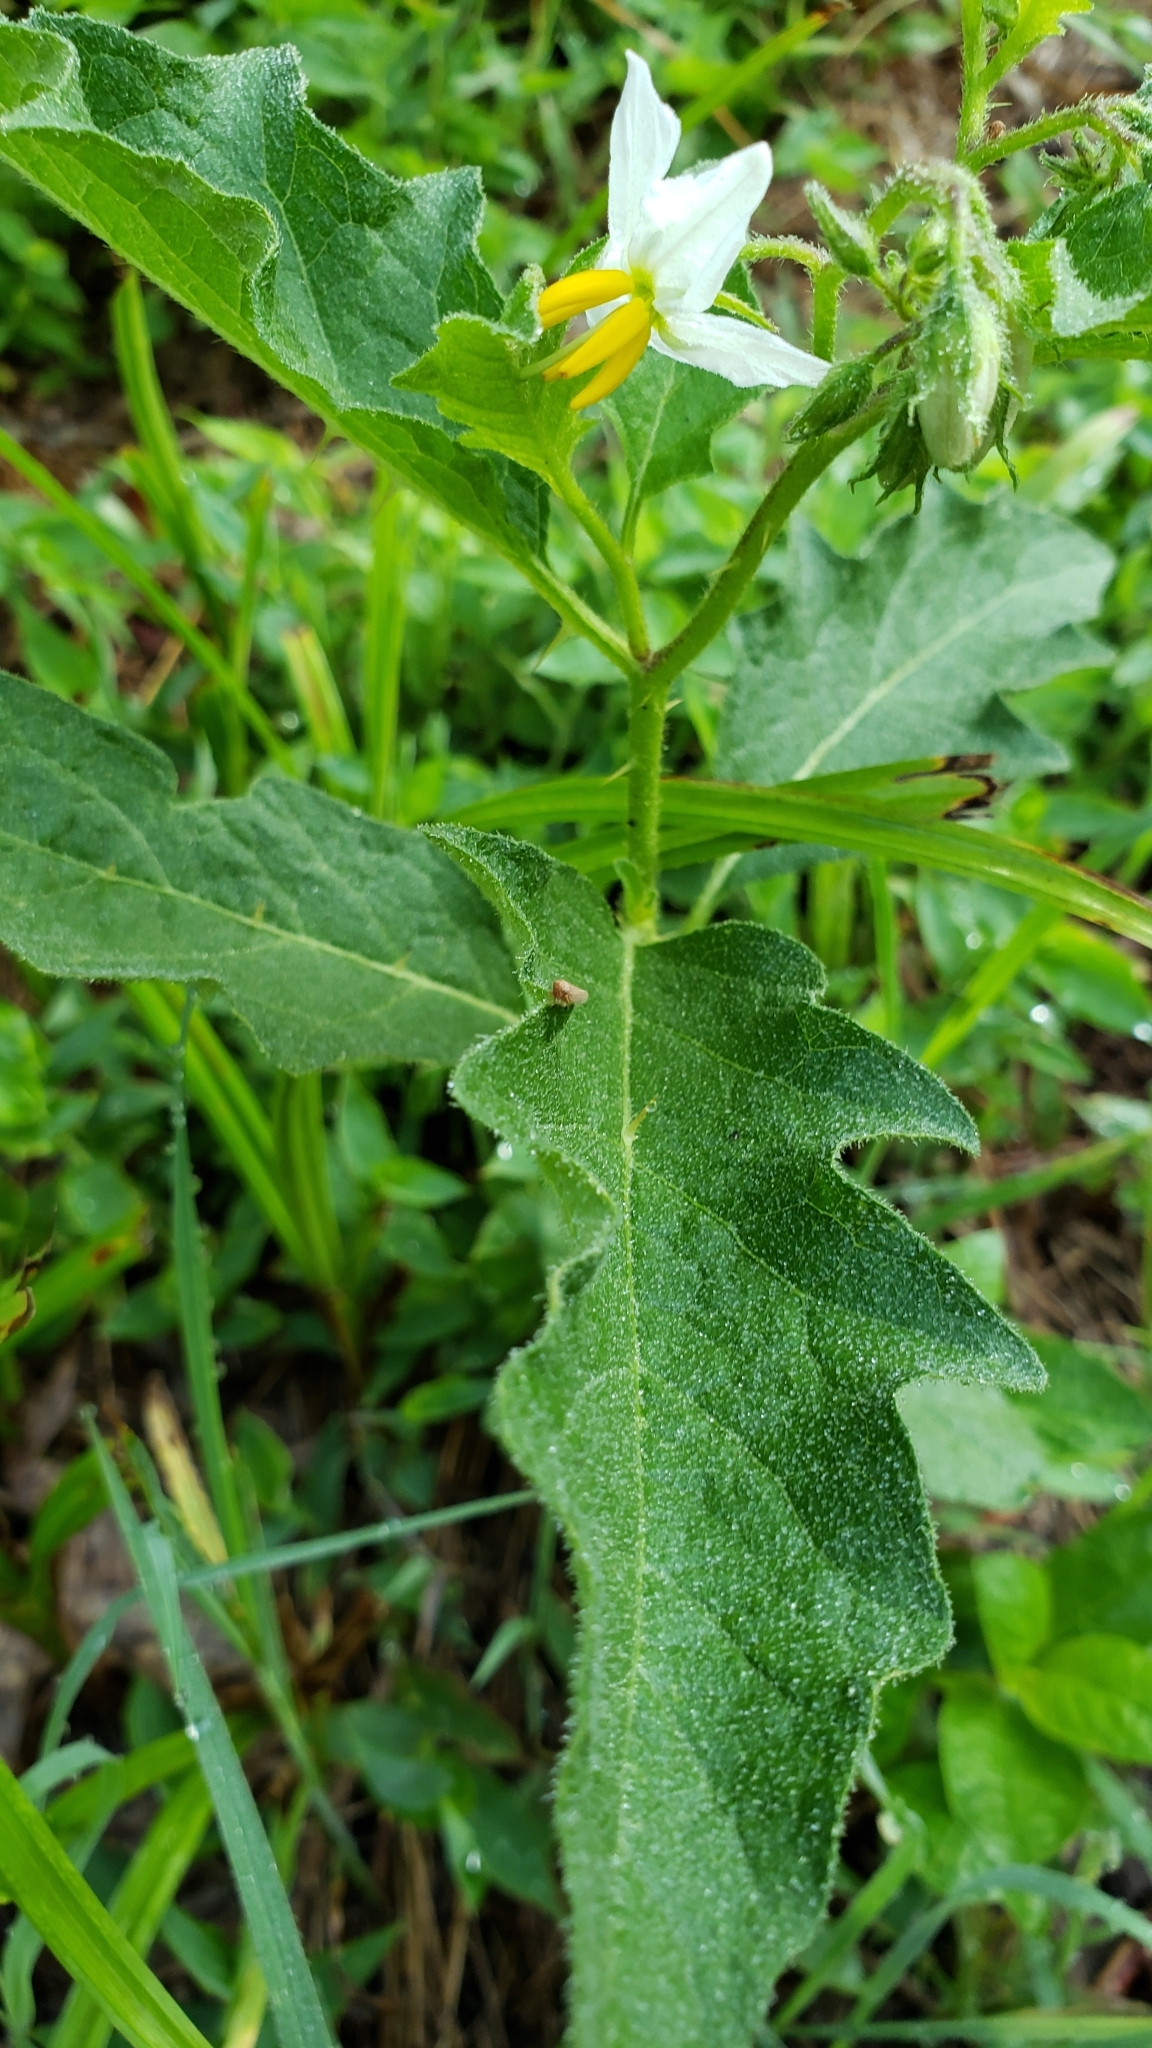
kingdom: Plantae
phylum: Tracheophyta
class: Magnoliopsida
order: Solanales
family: Solanaceae
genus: Solanum
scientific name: Solanum carolinense
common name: Horse-nettle
